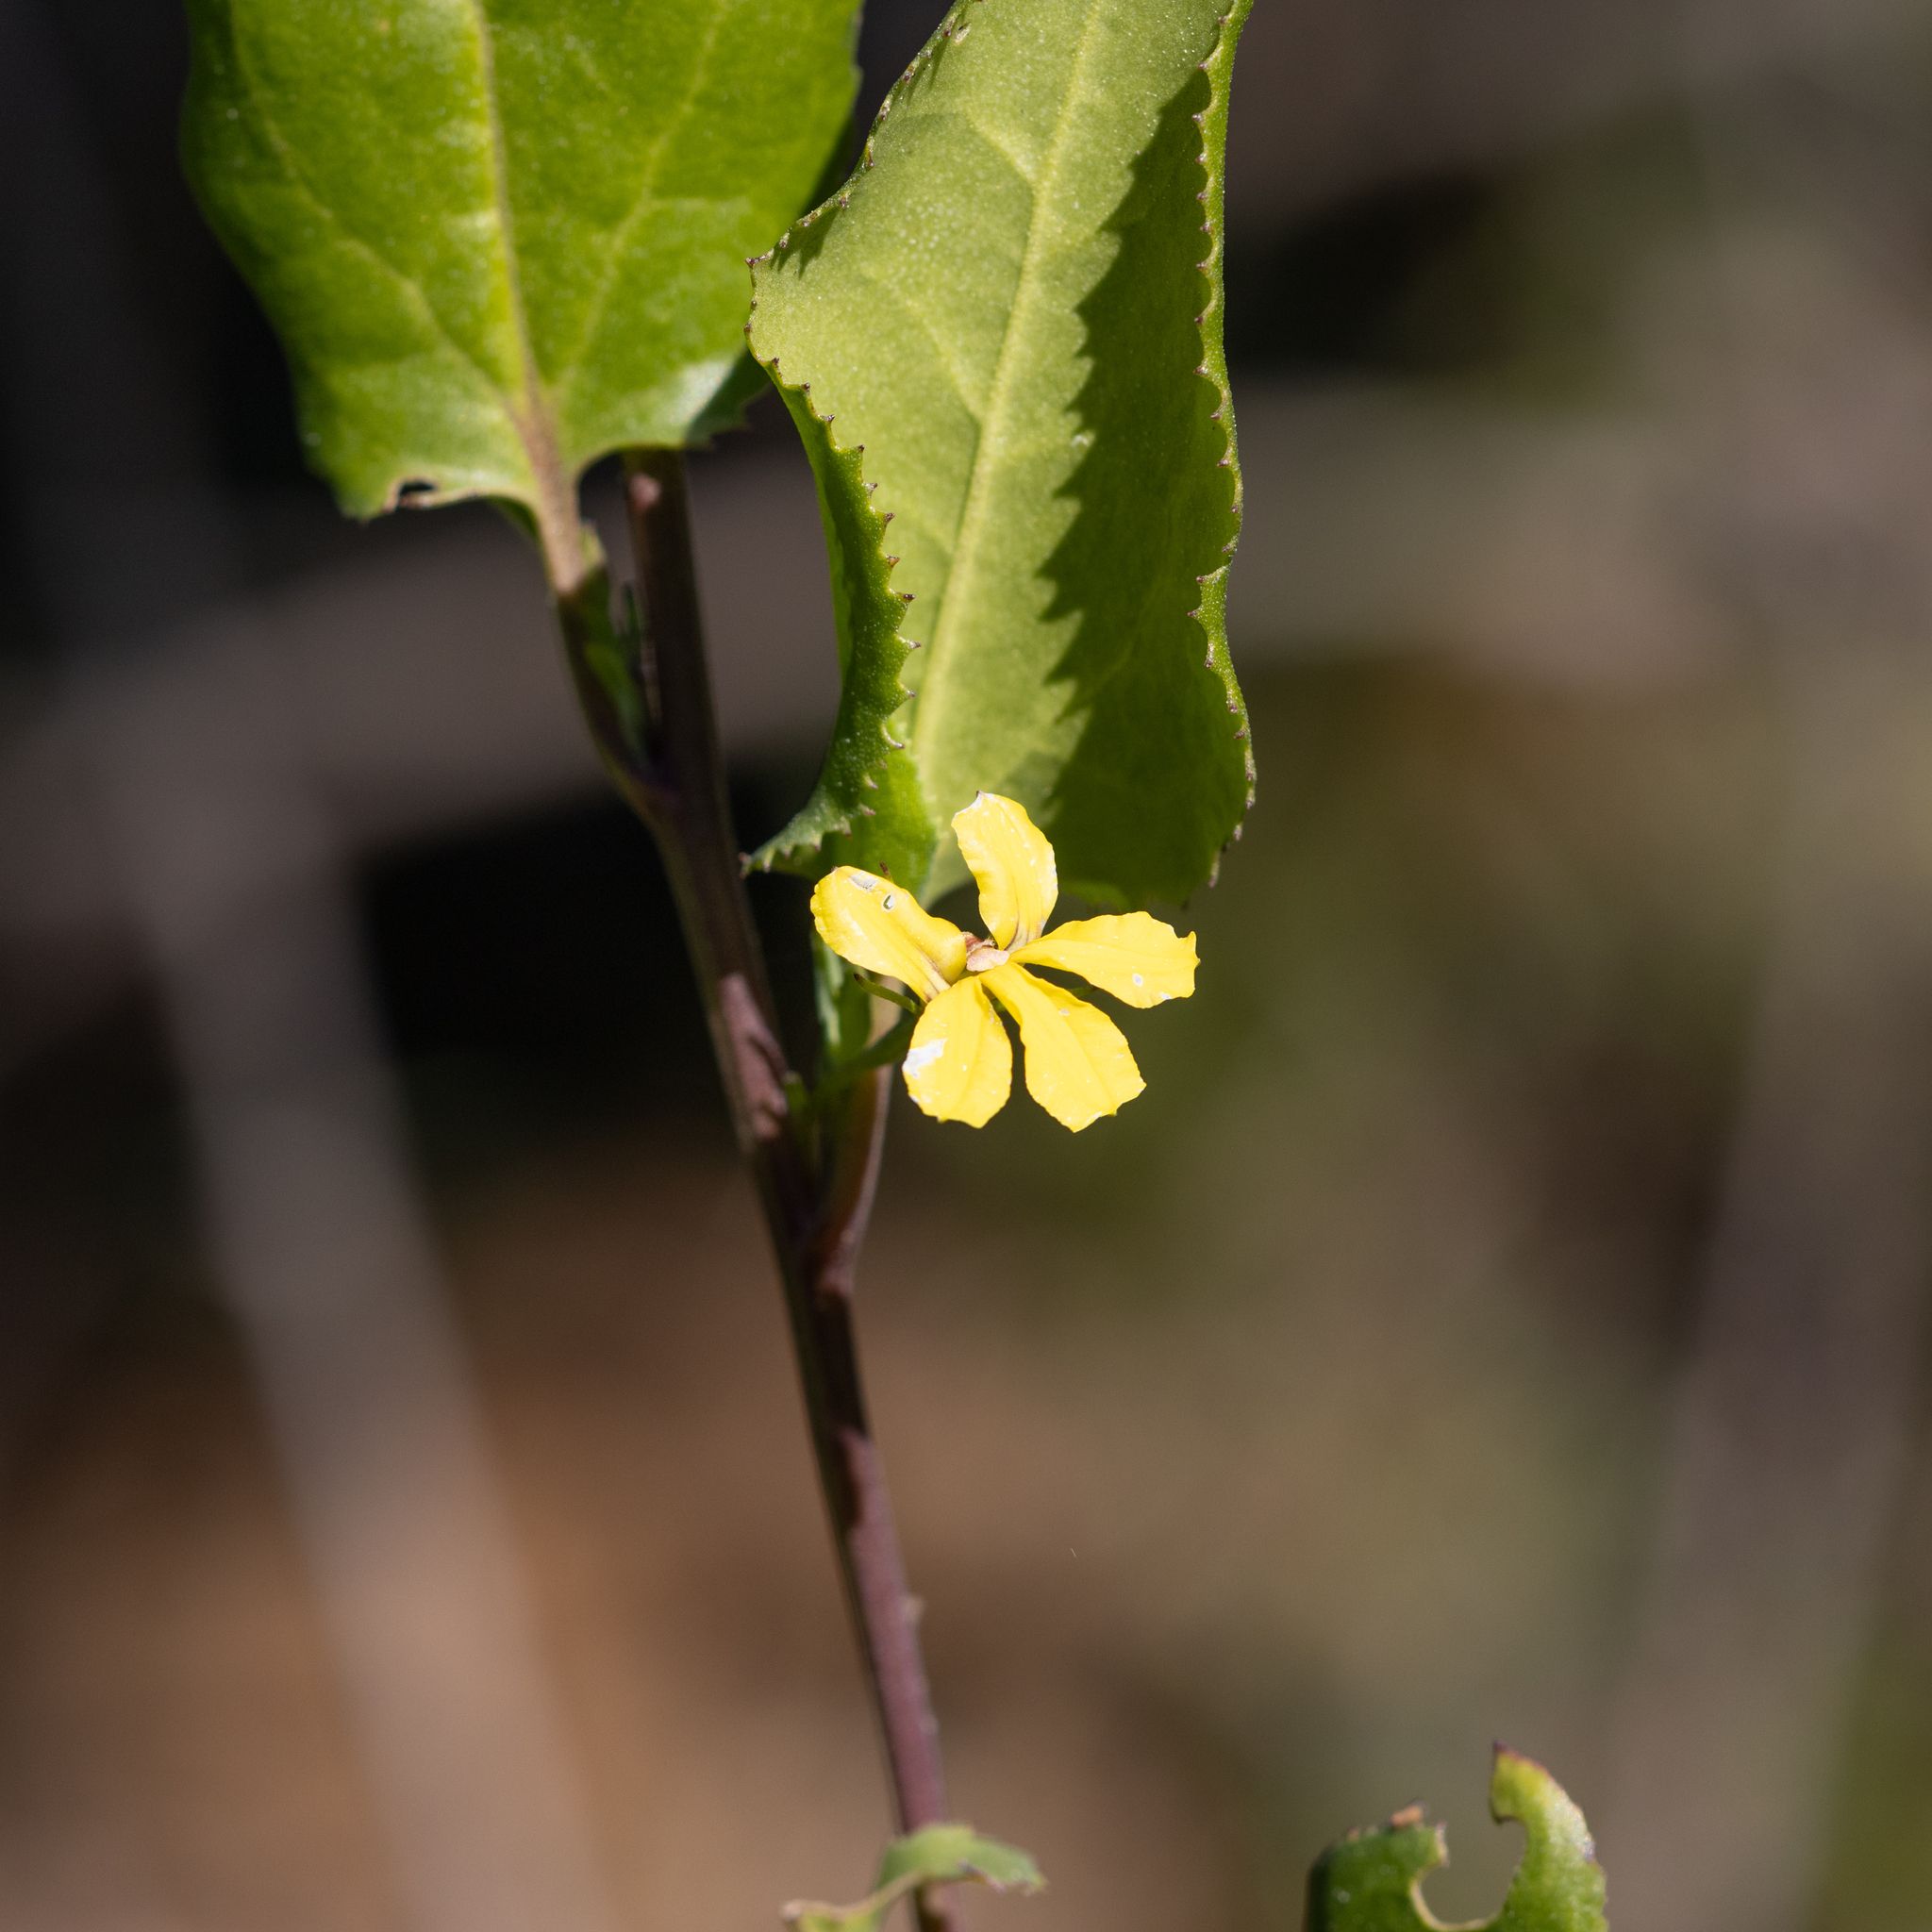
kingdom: Plantae
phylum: Tracheophyta
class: Magnoliopsida
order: Asterales
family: Goodeniaceae
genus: Goodenia
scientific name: Goodenia ovata
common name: Hop goodenia
